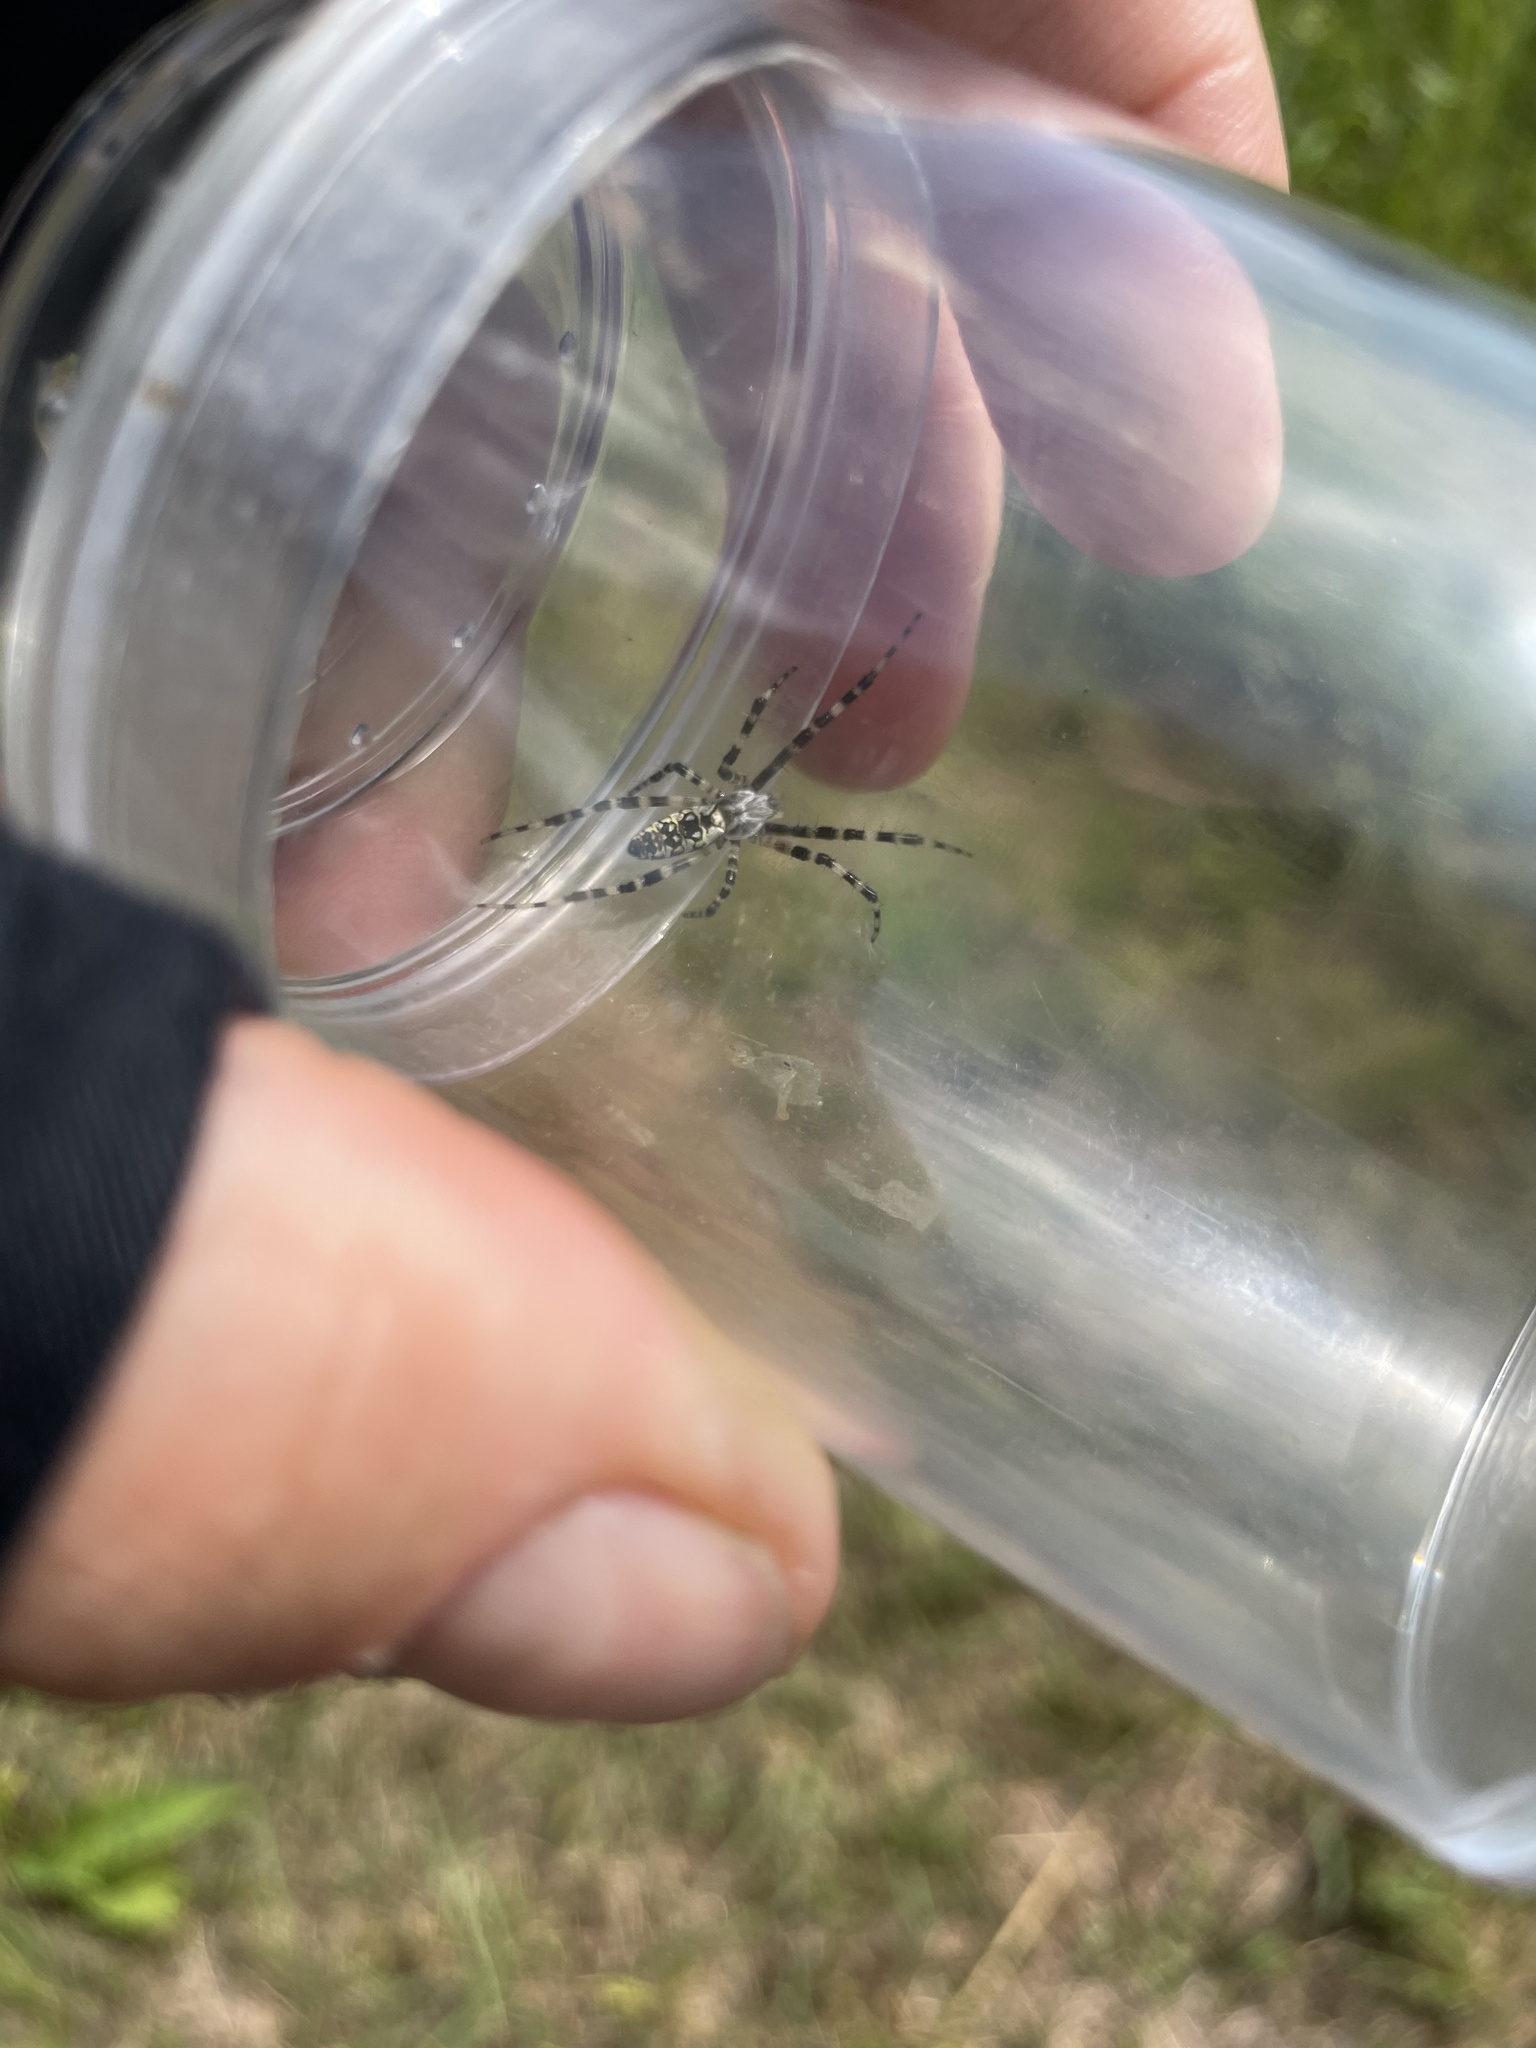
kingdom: Animalia
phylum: Arthropoda
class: Arachnida
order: Araneae
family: Araneidae
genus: Argiope
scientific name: Argiope aurantia
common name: Orb weavers
